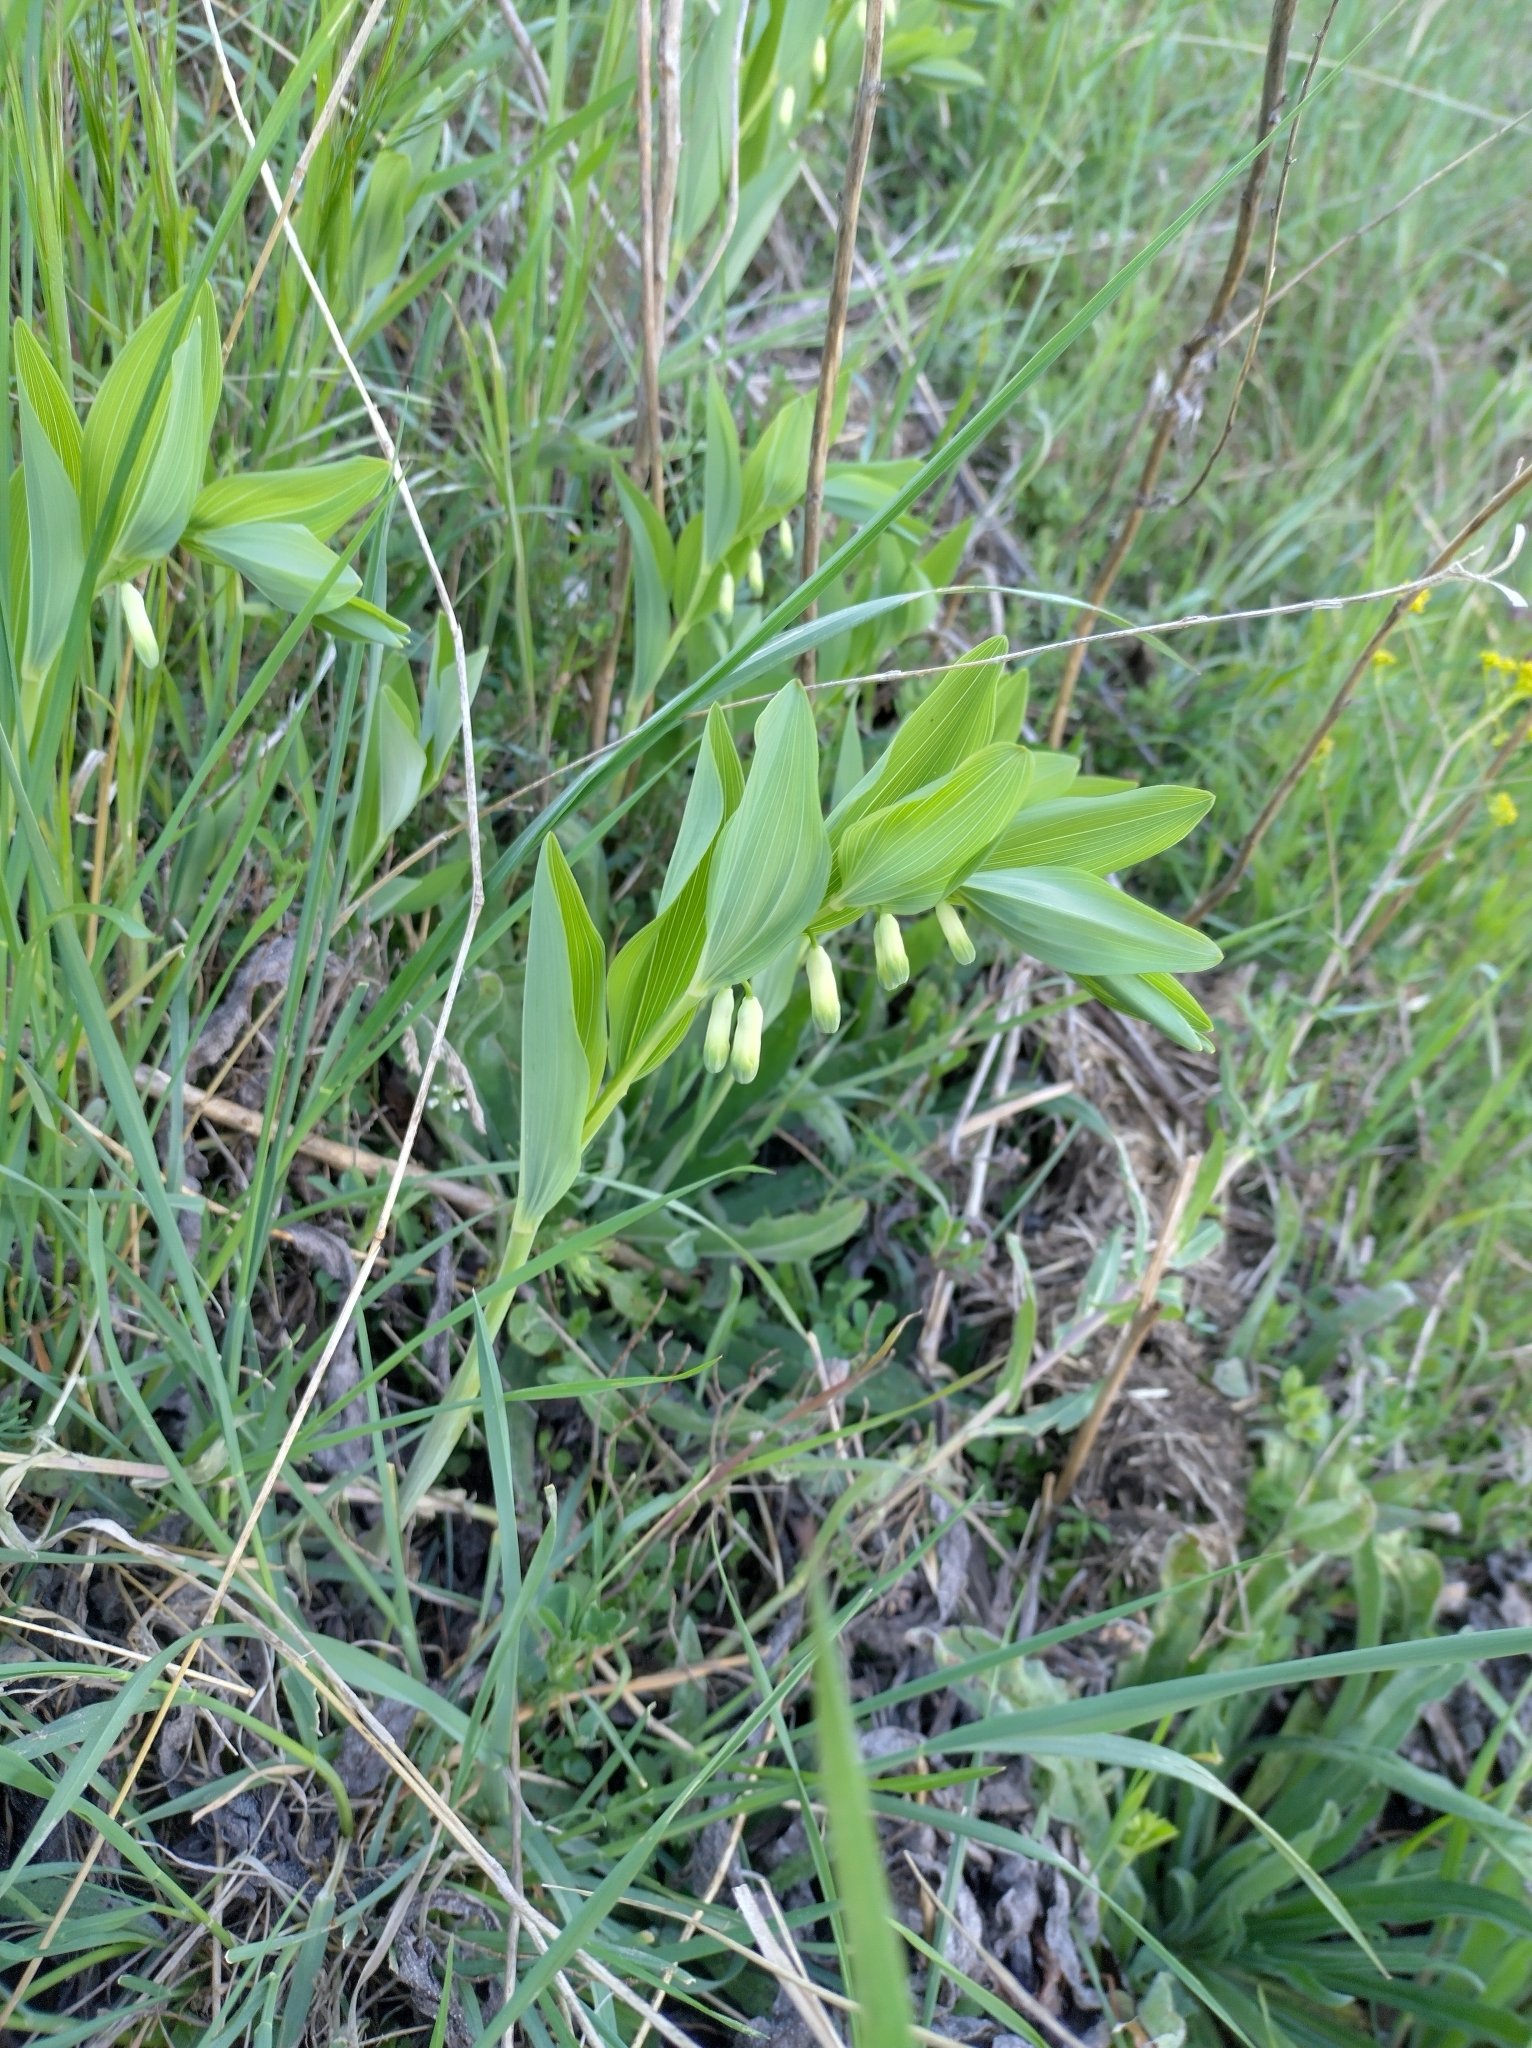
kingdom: Plantae
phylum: Tracheophyta
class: Liliopsida
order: Asparagales
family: Asparagaceae
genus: Polygonatum
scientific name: Polygonatum odoratum
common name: Angular solomon's-seal
